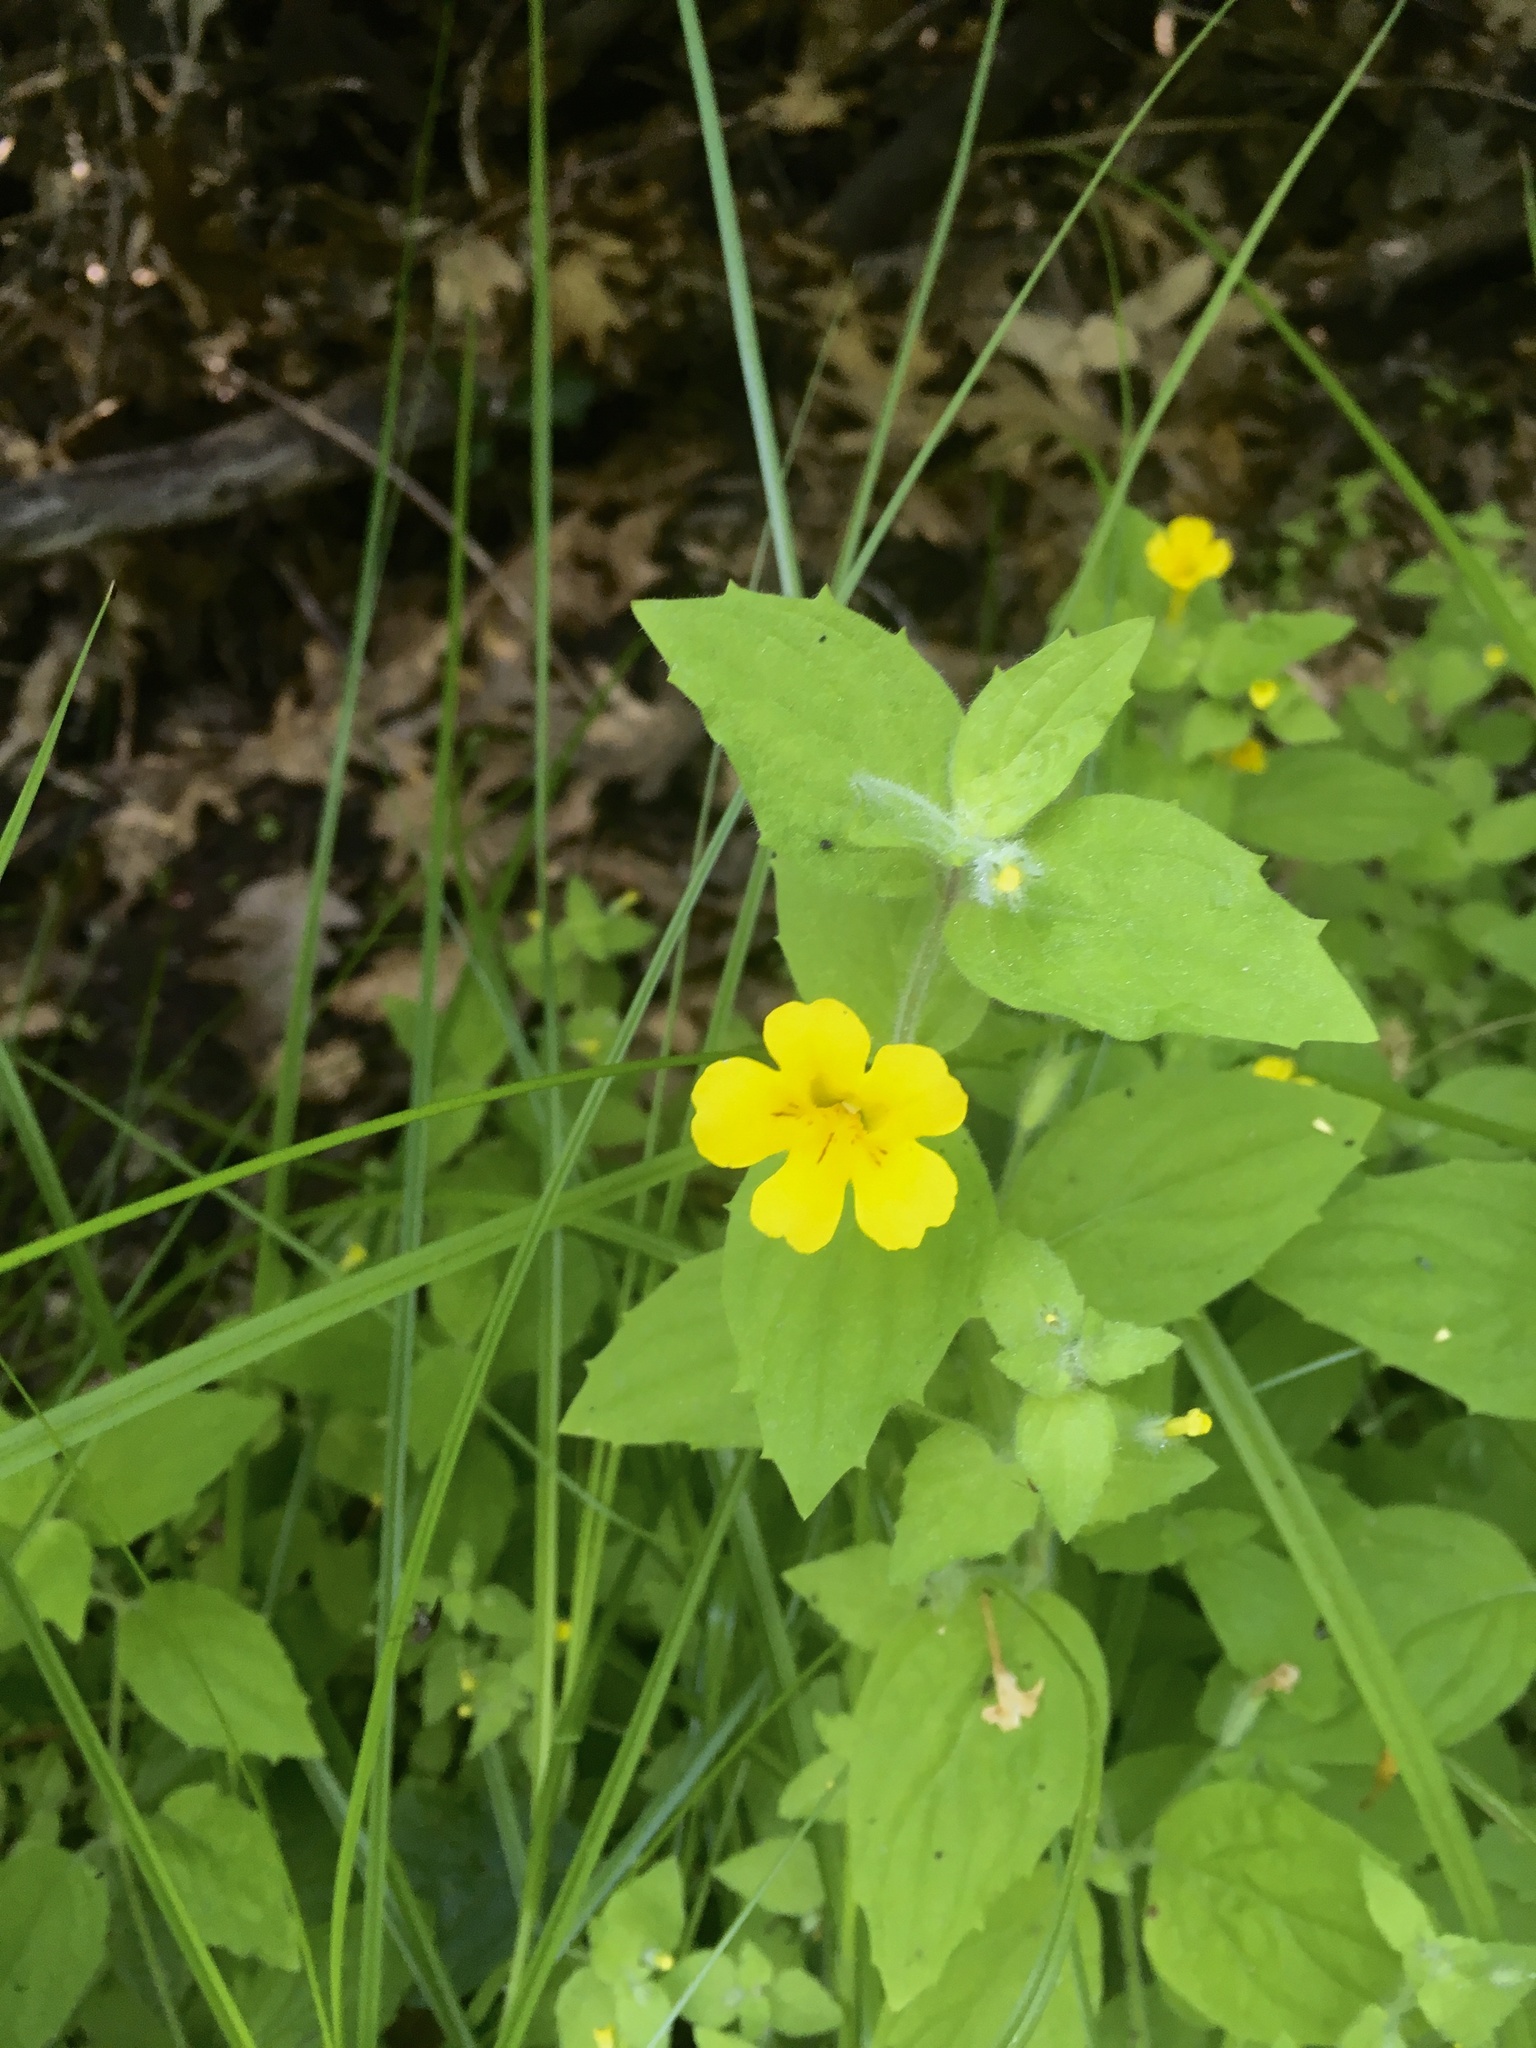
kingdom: Plantae
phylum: Tracheophyta
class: Magnoliopsida
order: Lamiales
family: Phrymaceae
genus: Erythranthe
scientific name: Erythranthe moschata
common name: Muskflower
